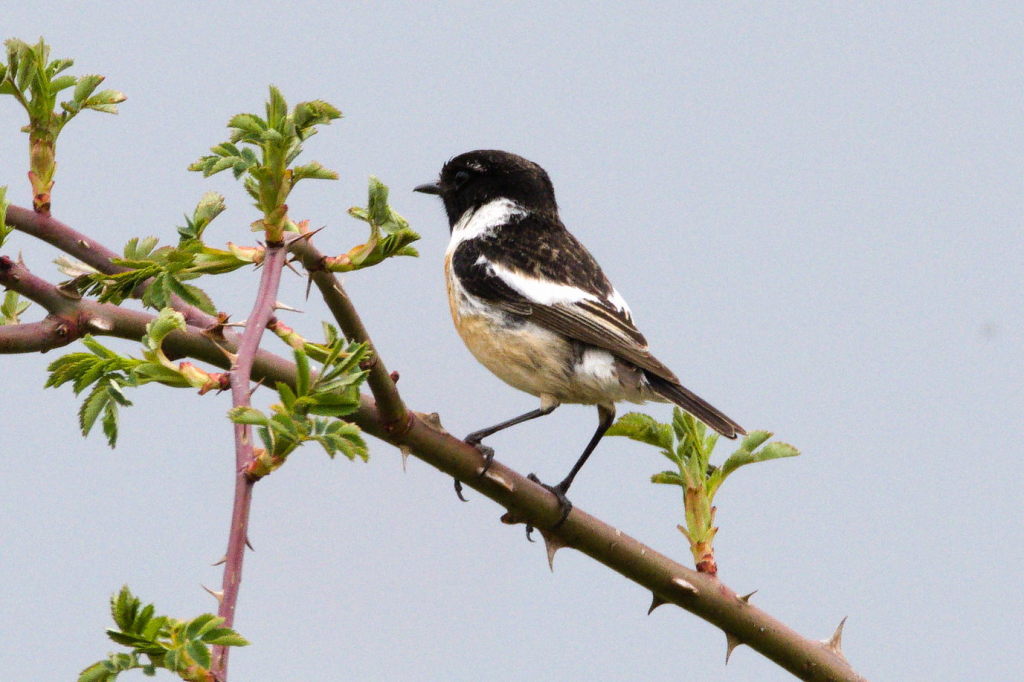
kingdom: Animalia
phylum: Chordata
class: Aves
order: Passeriformes
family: Muscicapidae
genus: Saxicola
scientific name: Saxicola rubicola
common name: European stonechat
